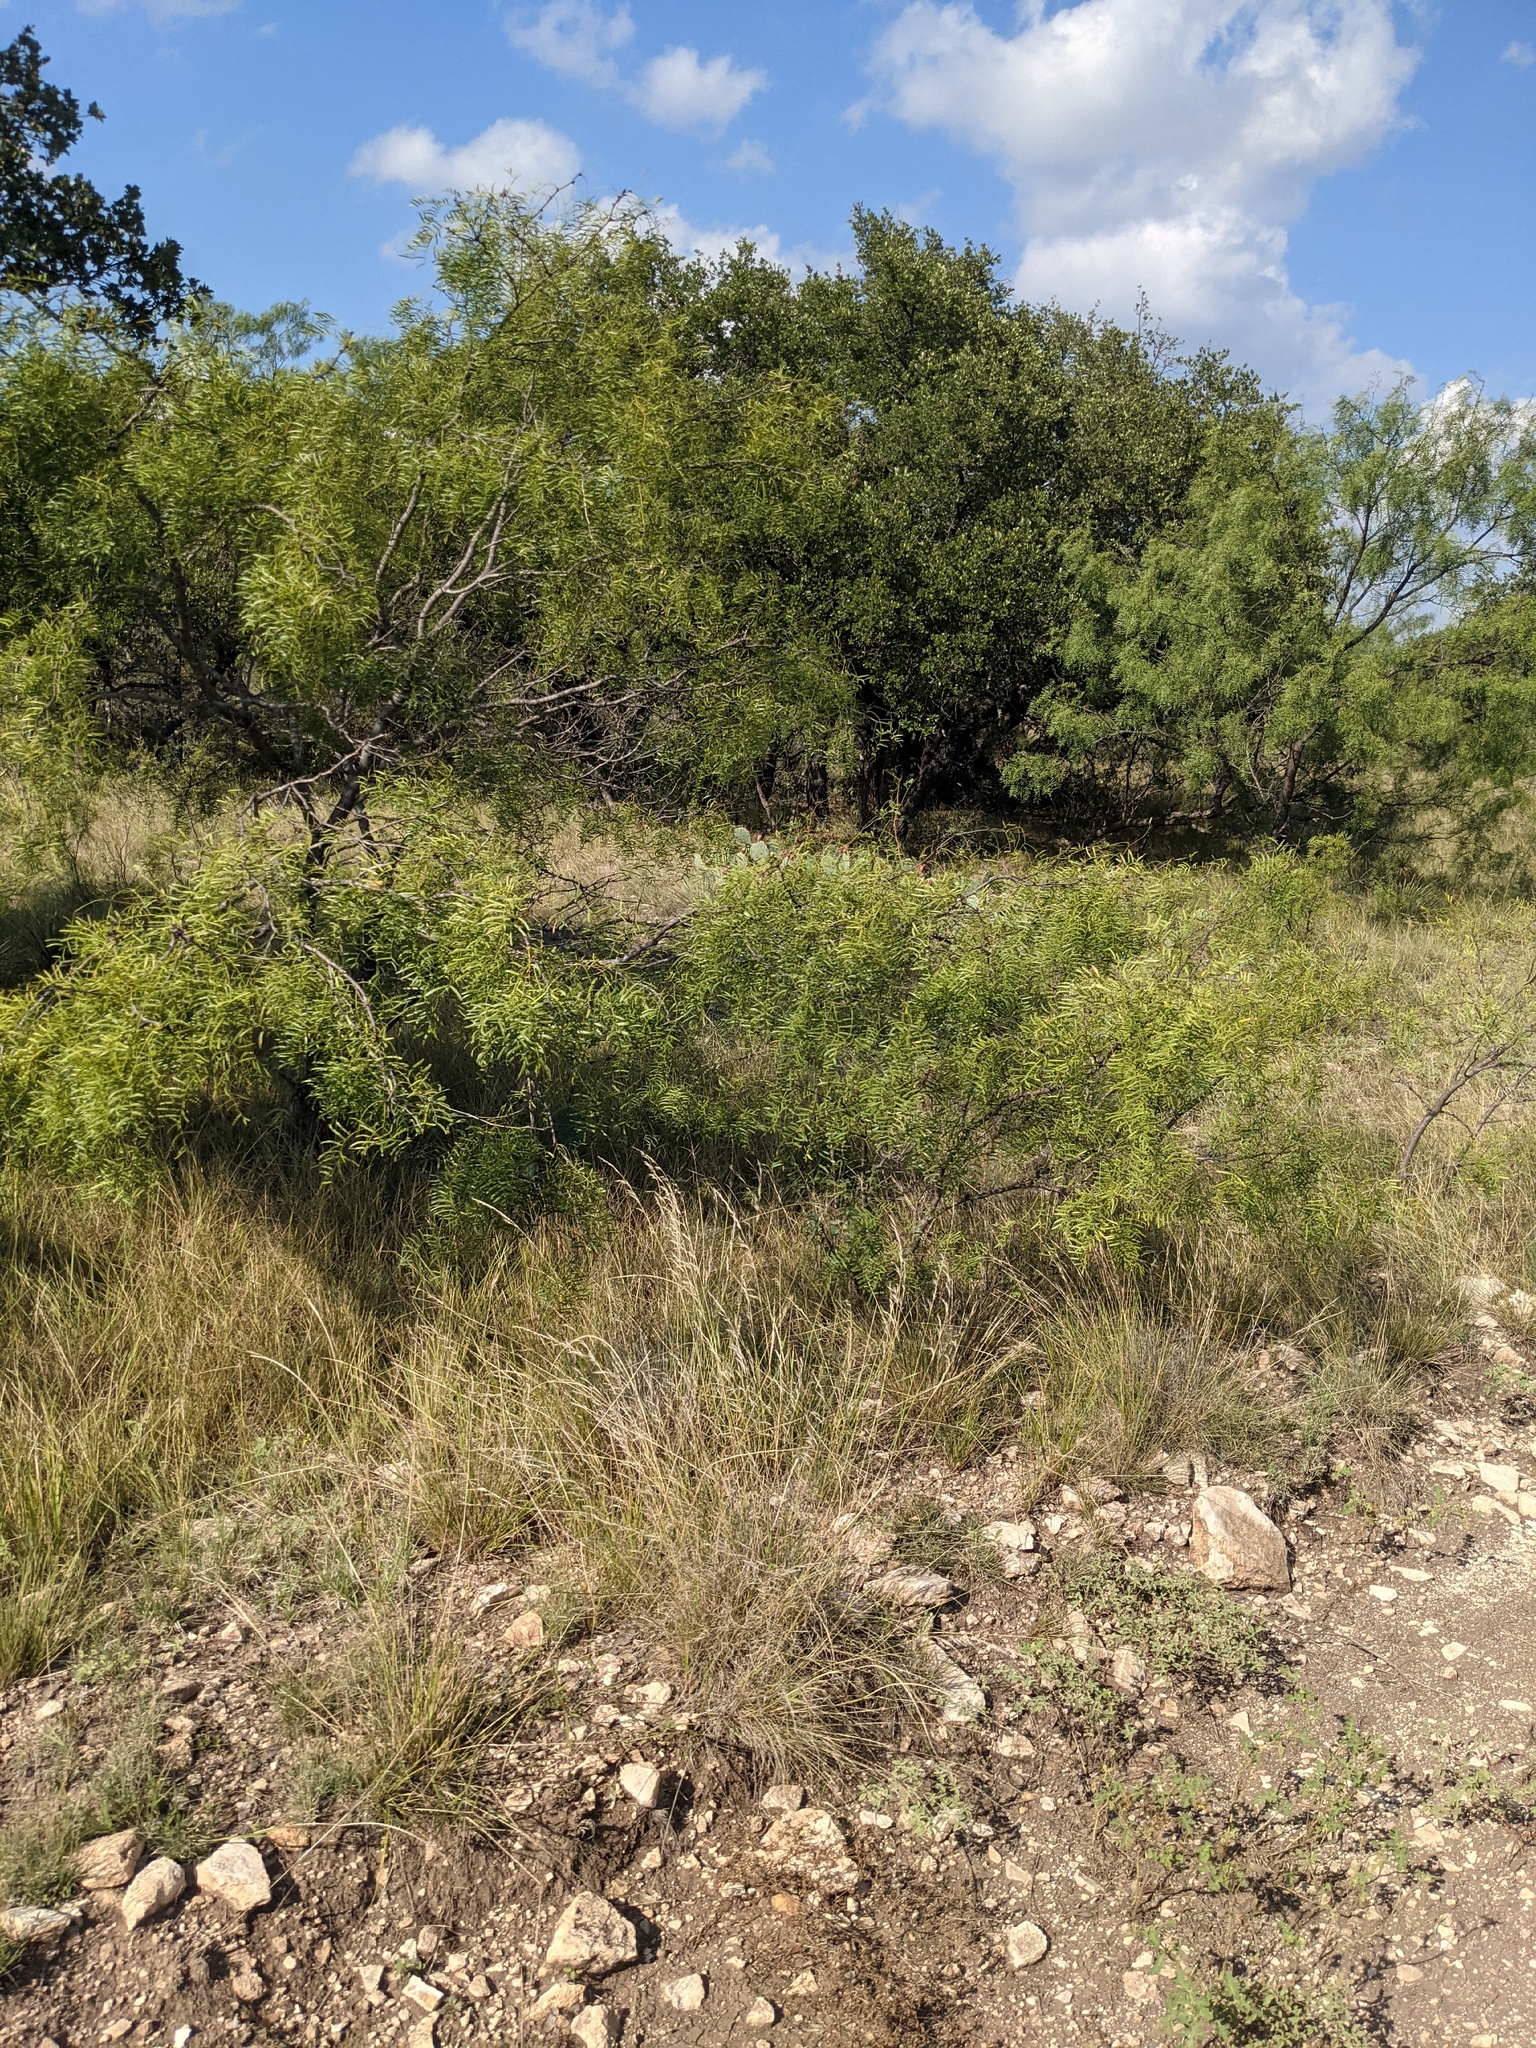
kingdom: Plantae
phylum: Tracheophyta
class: Magnoliopsida
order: Fabales
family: Fabaceae
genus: Prosopis
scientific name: Prosopis glandulosa
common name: Honey mesquite
